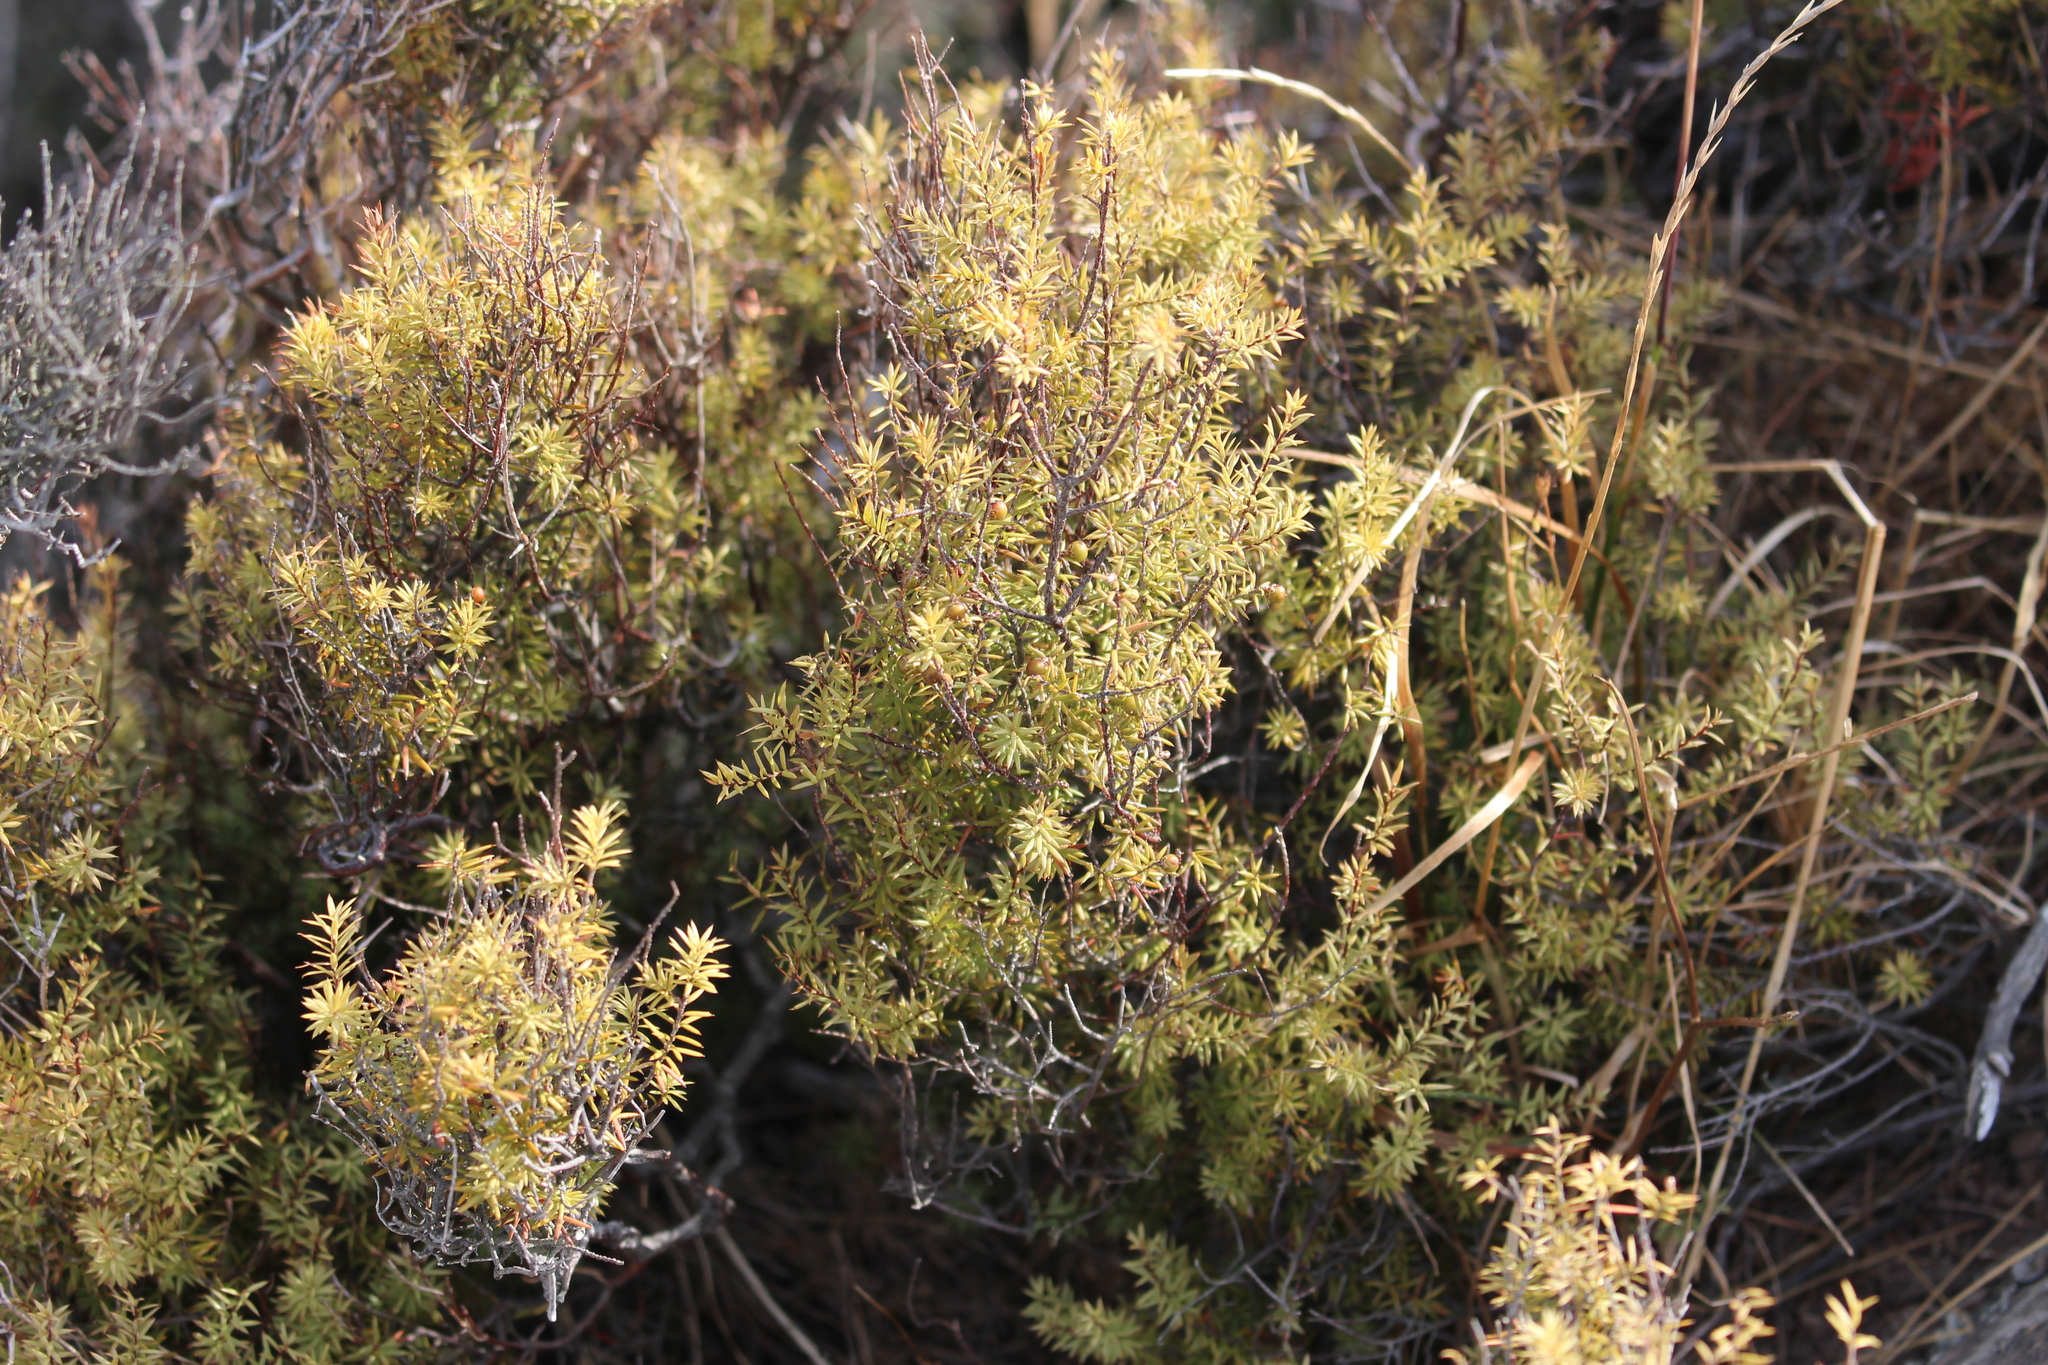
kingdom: Plantae
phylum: Tracheophyta
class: Magnoliopsida
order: Ericales
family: Ericaceae
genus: Leptecophylla
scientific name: Leptecophylla juniperina
